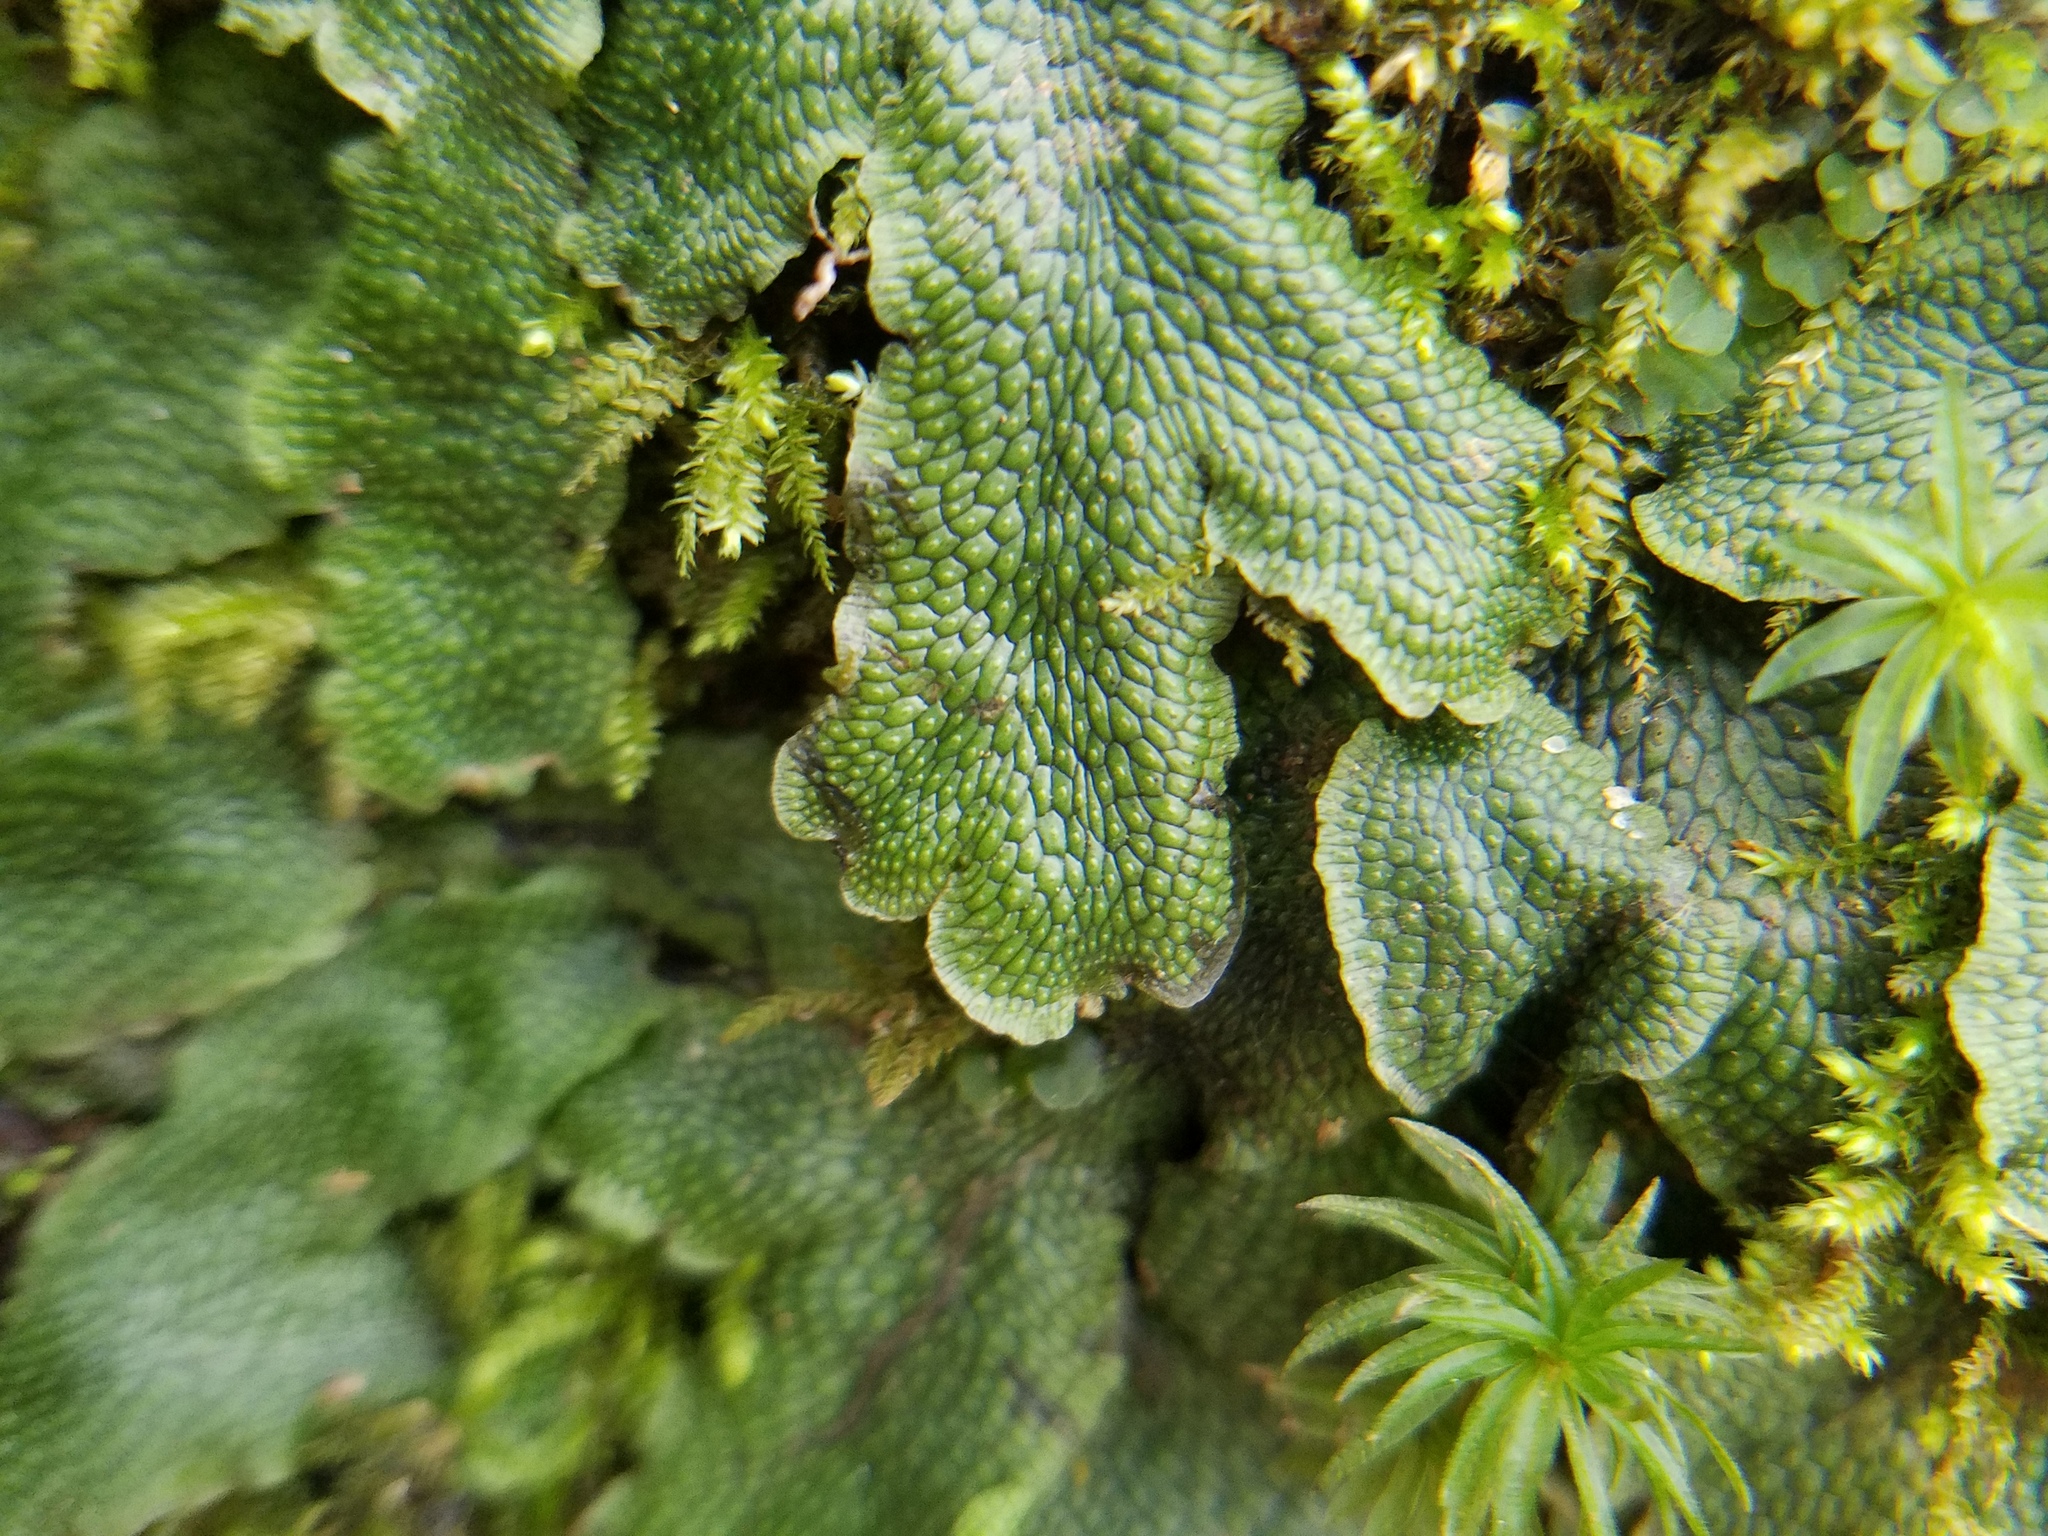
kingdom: Plantae
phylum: Marchantiophyta
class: Marchantiopsida
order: Marchantiales
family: Conocephalaceae
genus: Conocephalum
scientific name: Conocephalum salebrosum
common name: Cat-tongue liverwort
